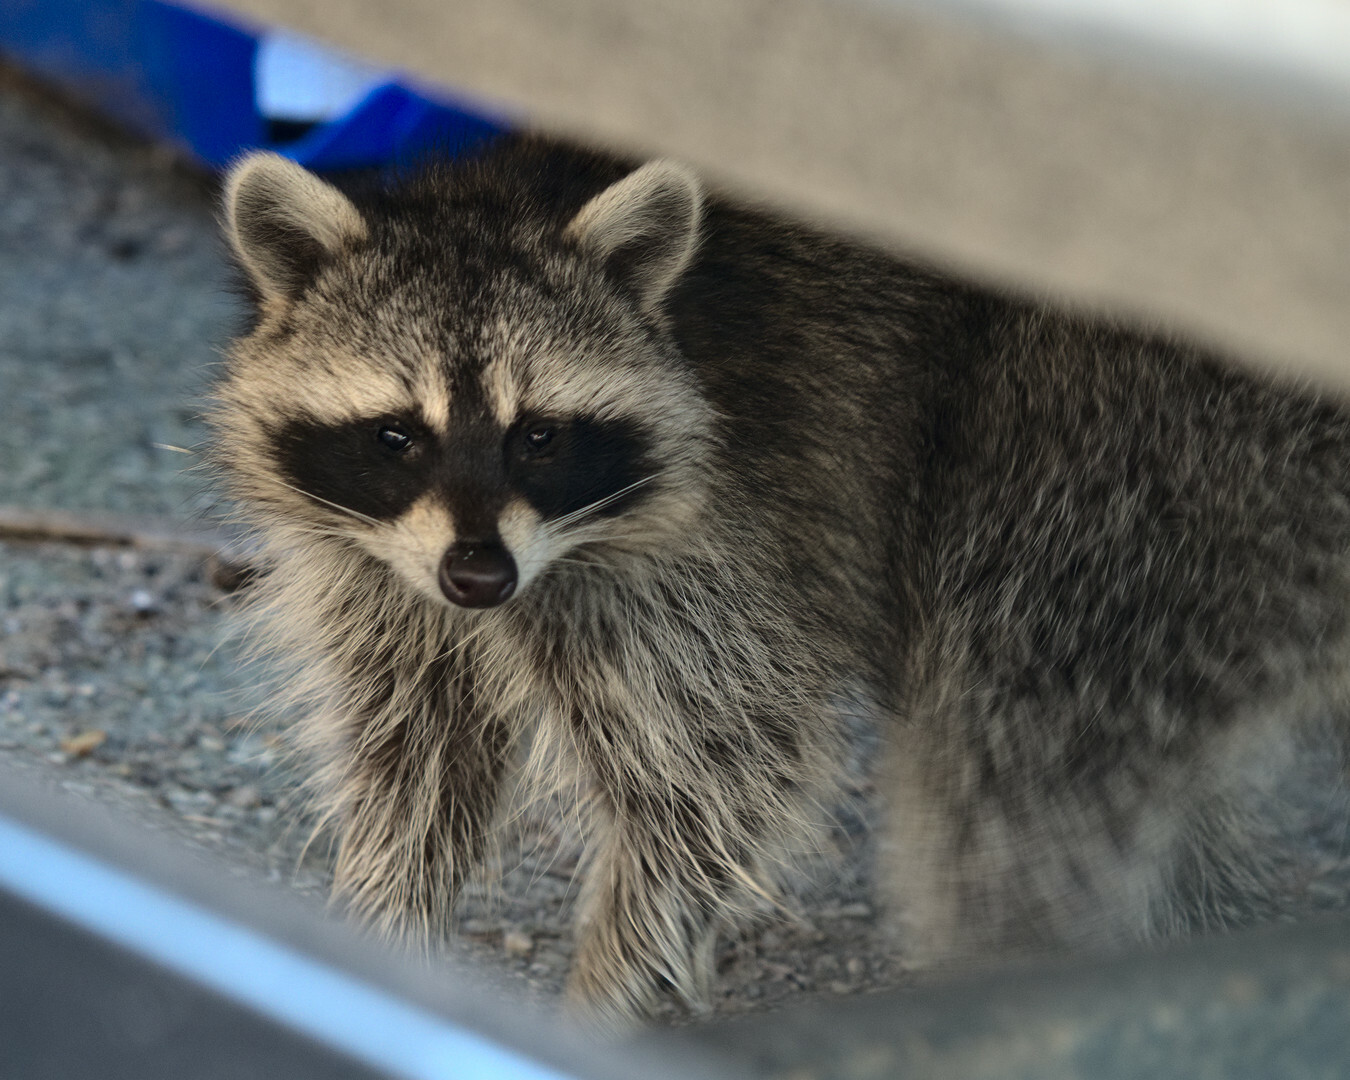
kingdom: Animalia
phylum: Chordata
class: Mammalia
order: Carnivora
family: Procyonidae
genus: Procyon
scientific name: Procyon lotor
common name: Raccoon
